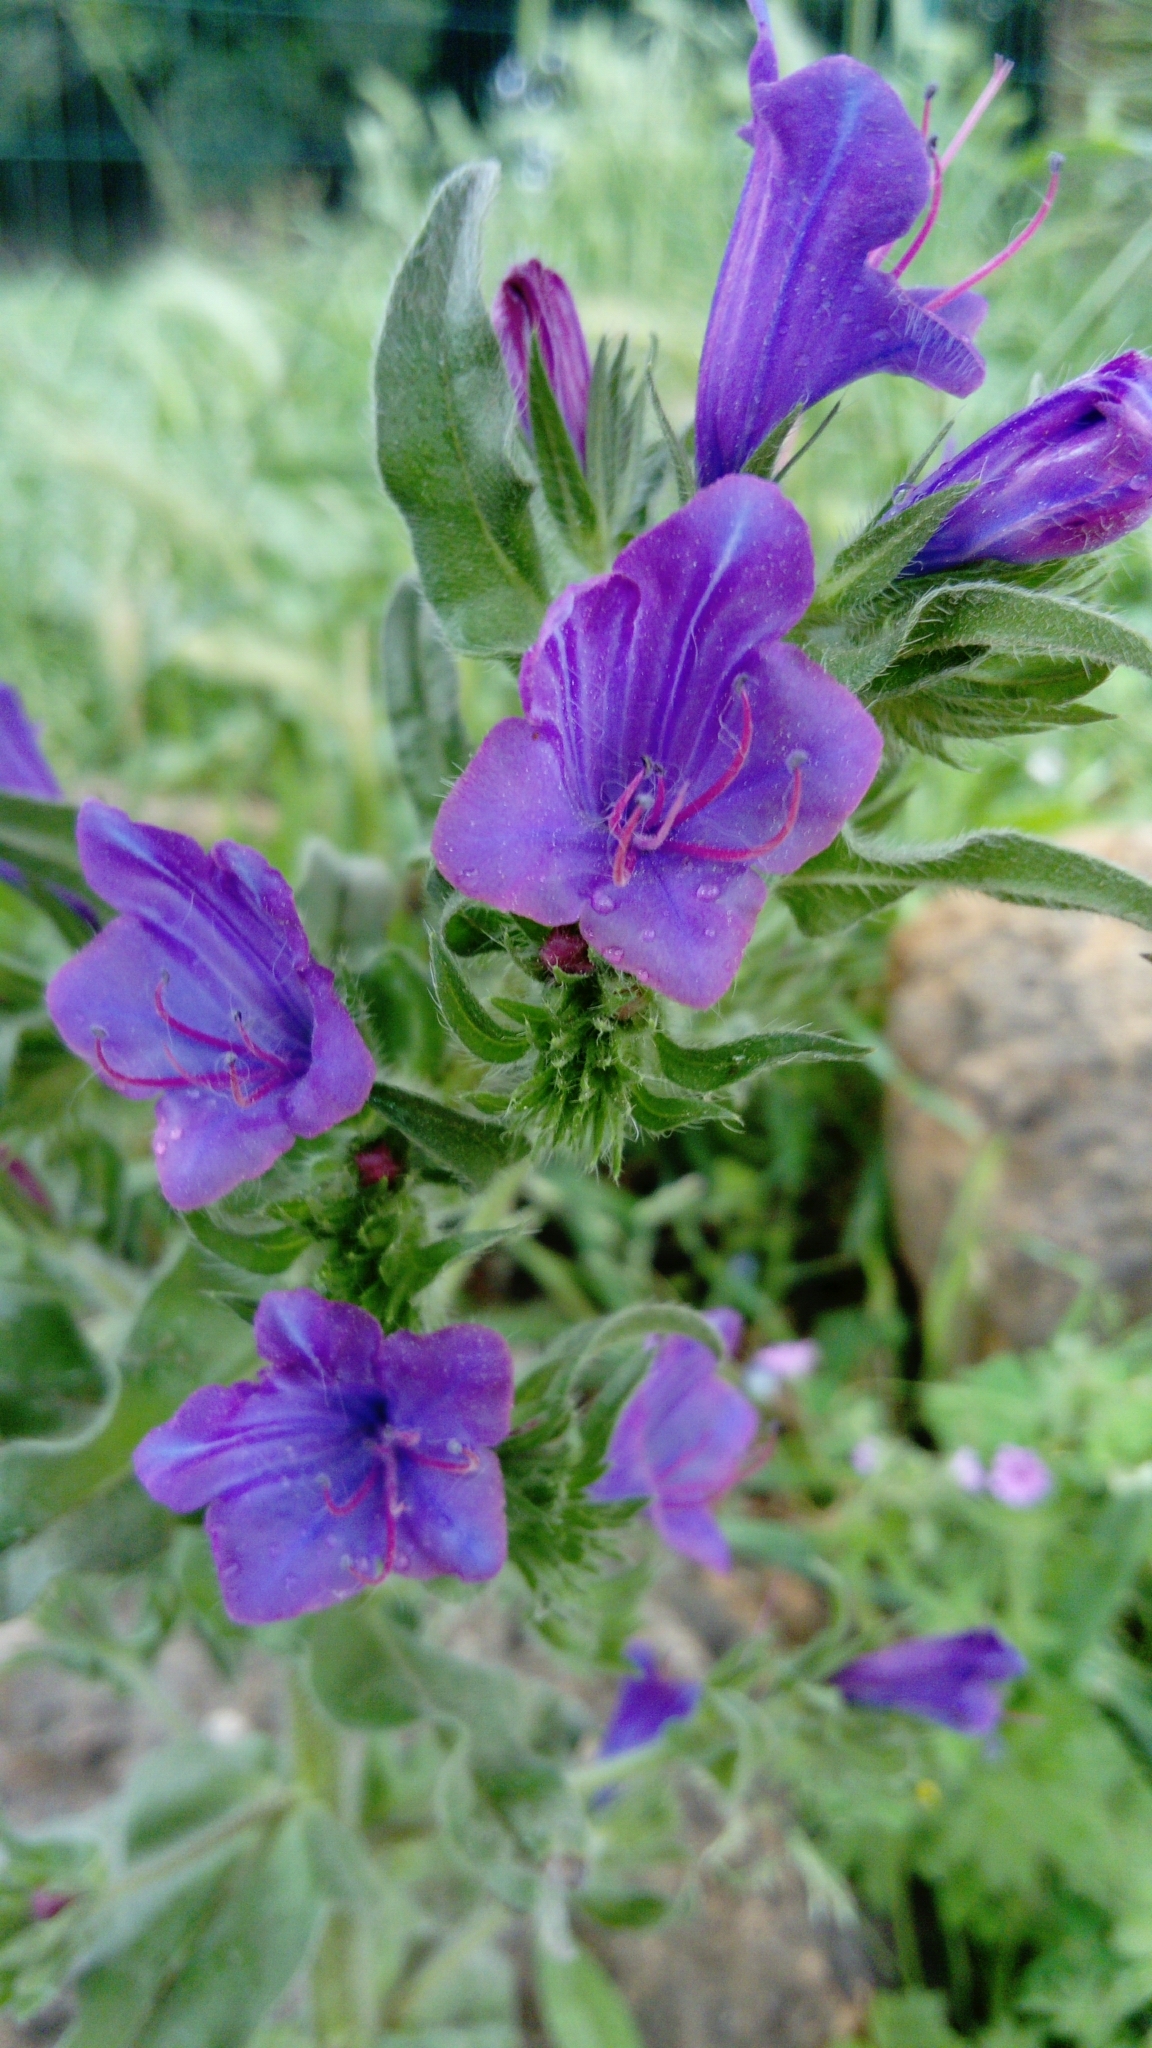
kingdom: Plantae
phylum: Tracheophyta
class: Magnoliopsida
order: Boraginales
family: Boraginaceae
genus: Echium
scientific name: Echium plantagineum
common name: Purple viper's-bugloss
